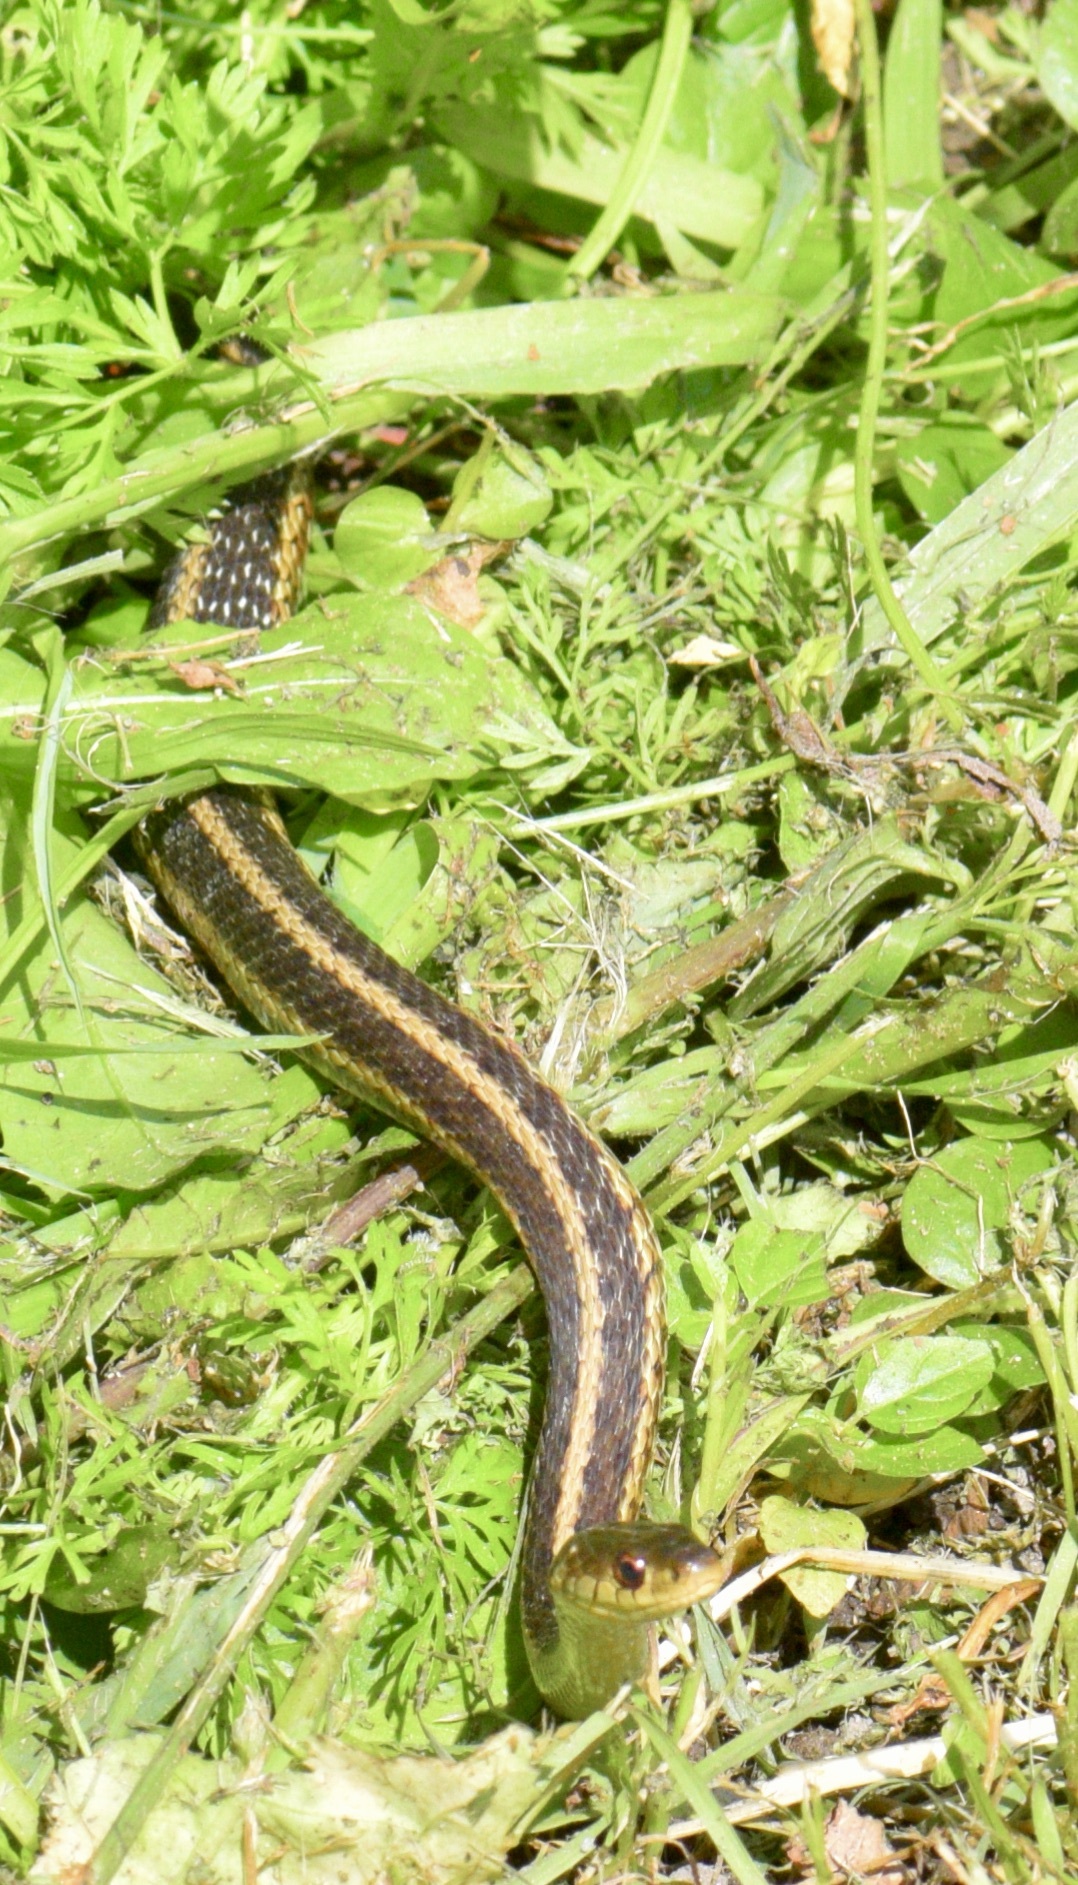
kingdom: Animalia
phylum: Chordata
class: Squamata
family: Colubridae
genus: Thamnophis
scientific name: Thamnophis sirtalis
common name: Common garter snake
